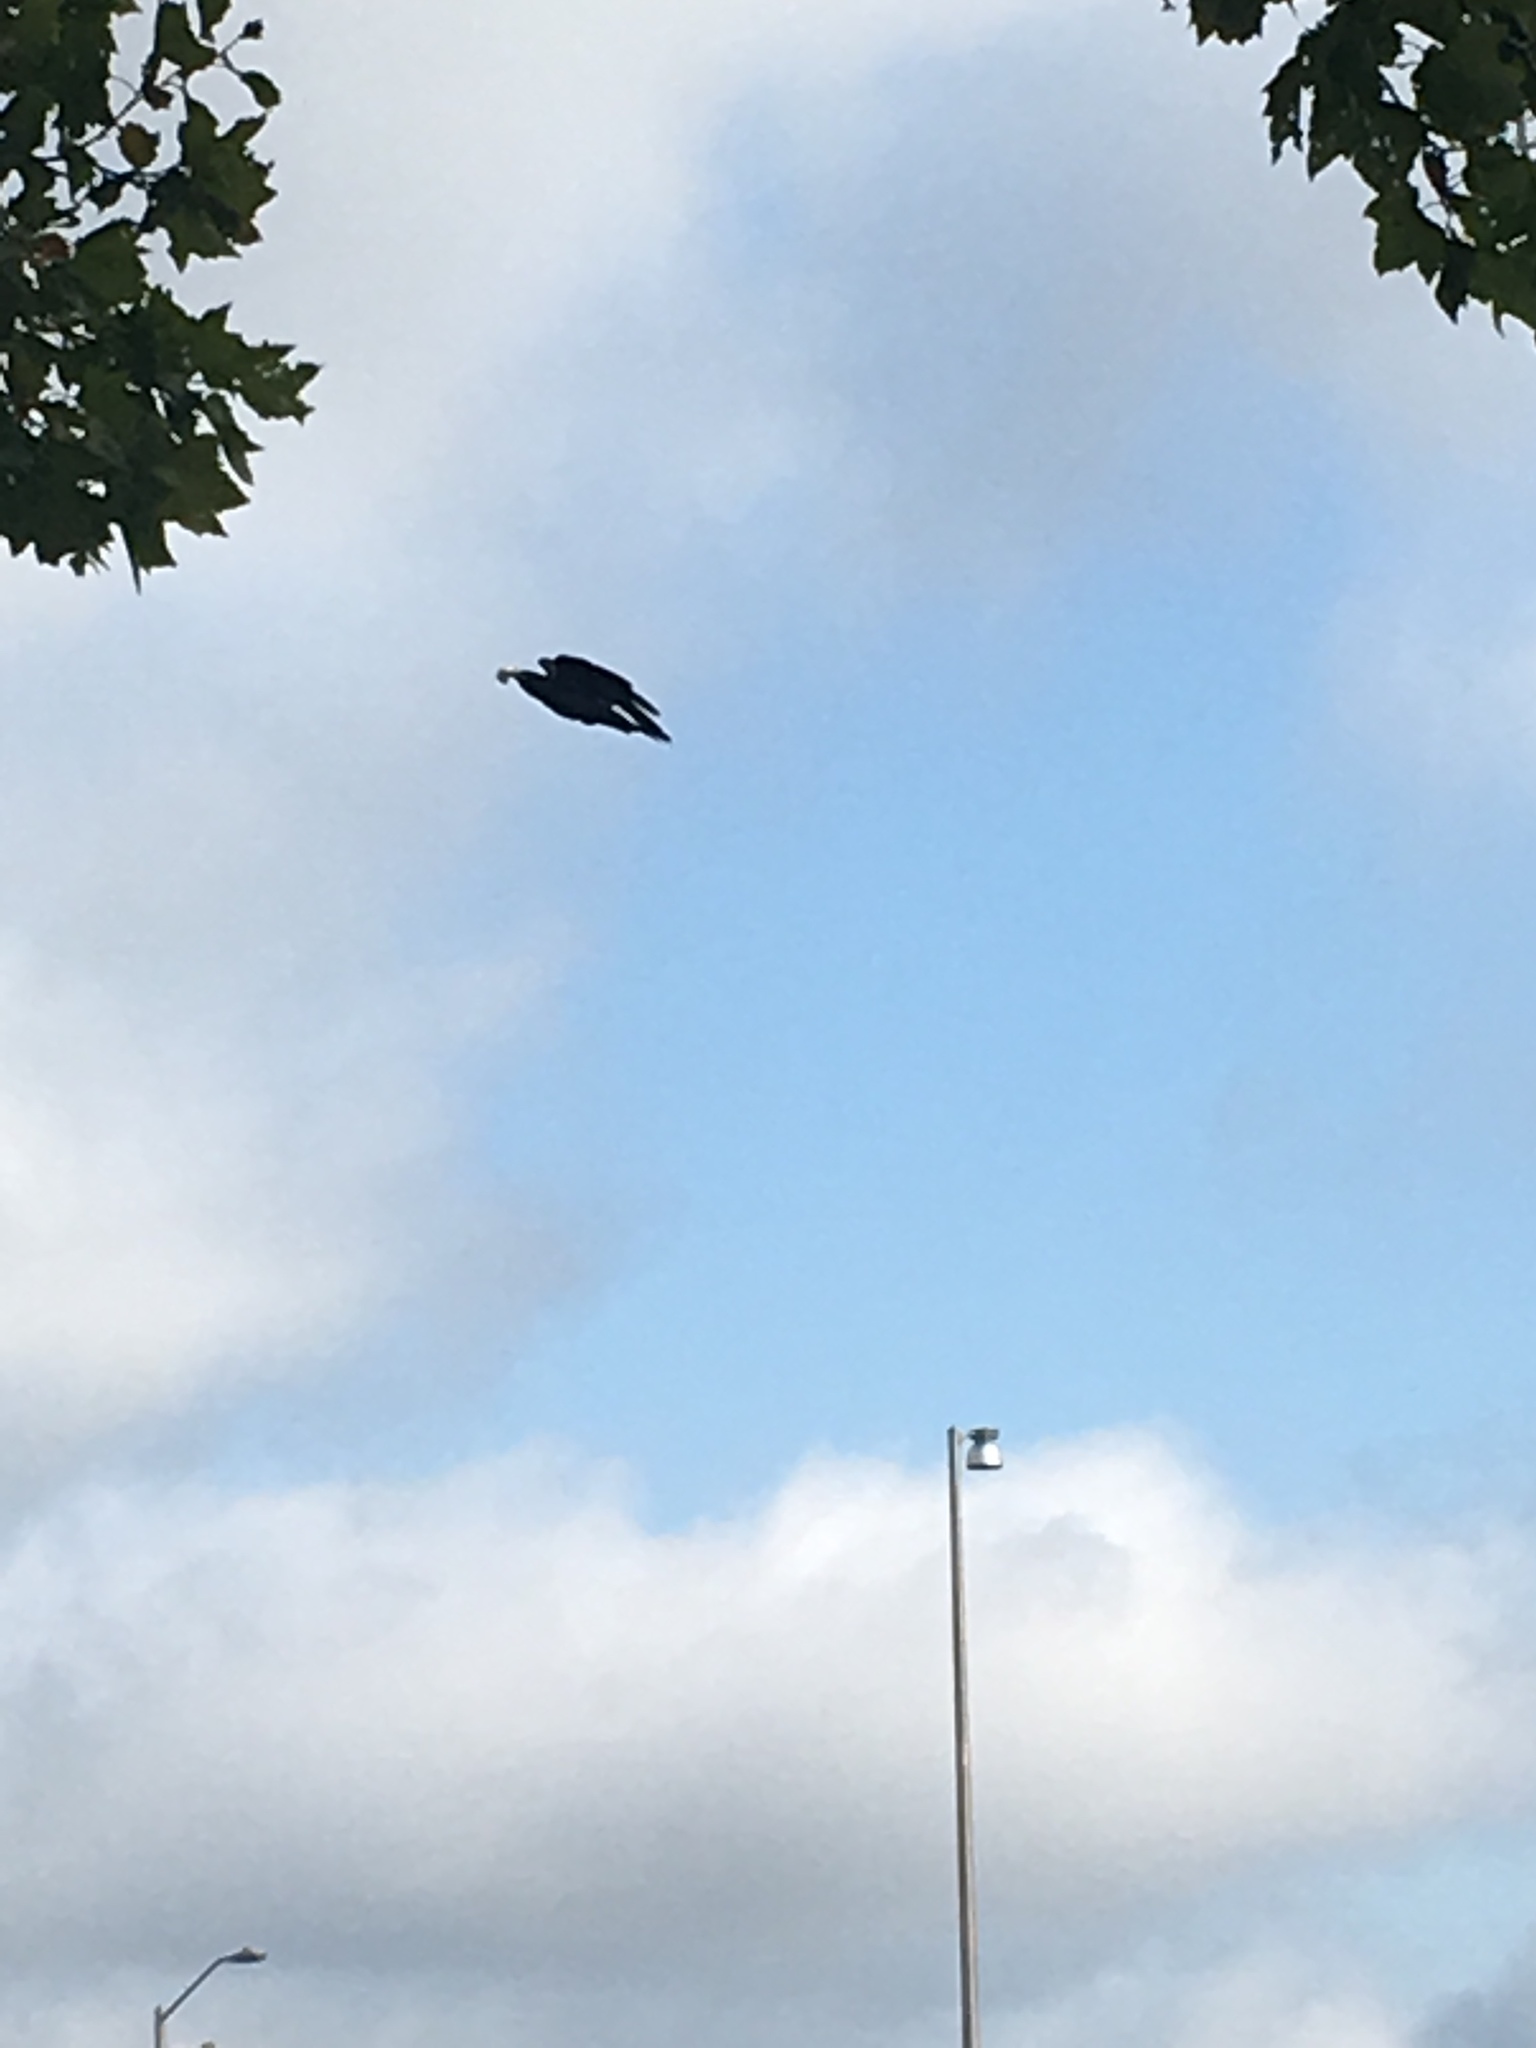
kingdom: Animalia
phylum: Chordata
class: Aves
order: Passeriformes
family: Corvidae
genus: Corvus
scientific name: Corvus ossifragus
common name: Fish crow
